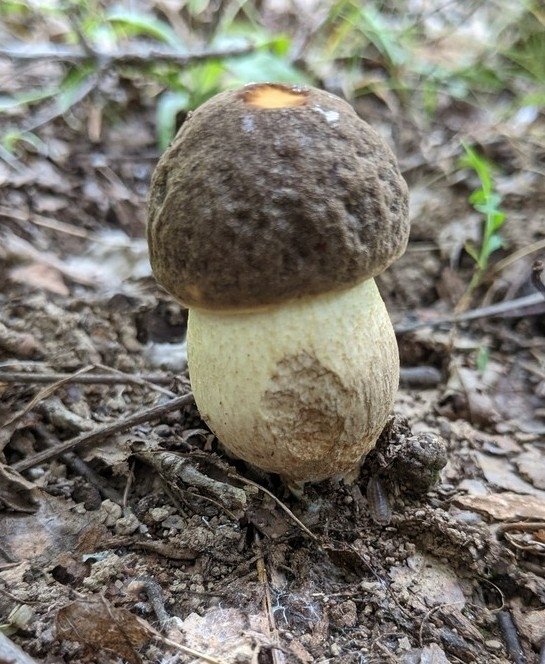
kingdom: Fungi
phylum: Basidiomycota
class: Agaricomycetes
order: Boletales
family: Boletaceae
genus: Leccinellum
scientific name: Leccinellum rugosiceps
